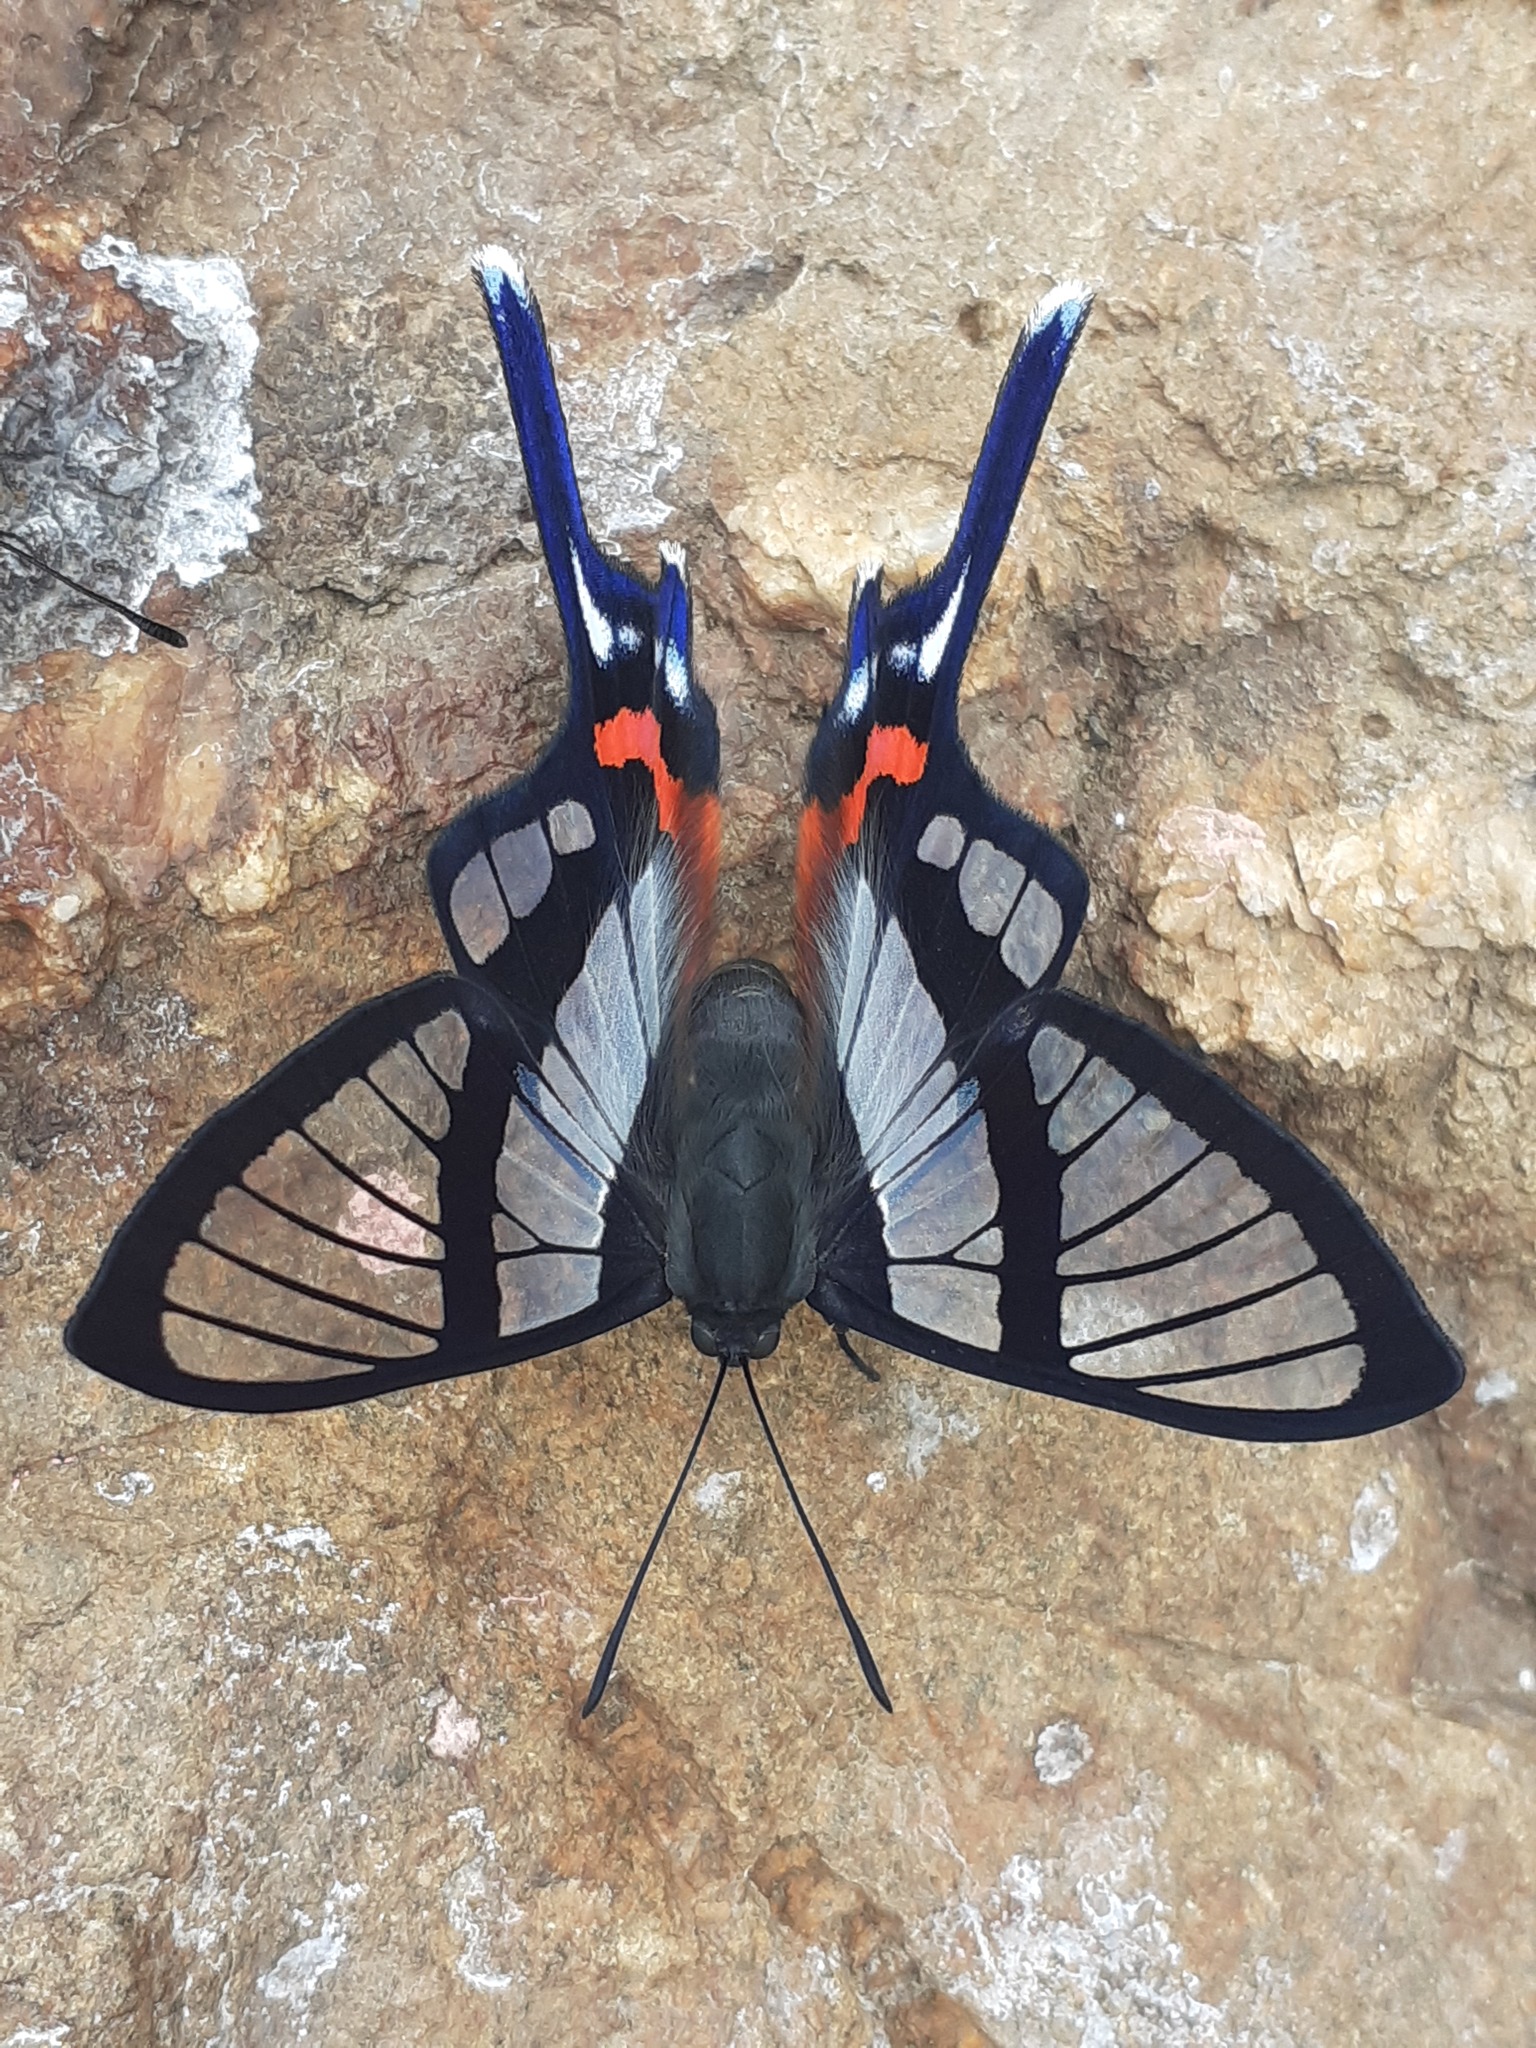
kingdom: Animalia
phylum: Arthropoda
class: Insecta
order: Lepidoptera
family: Riodinidae
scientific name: Riodinidae
